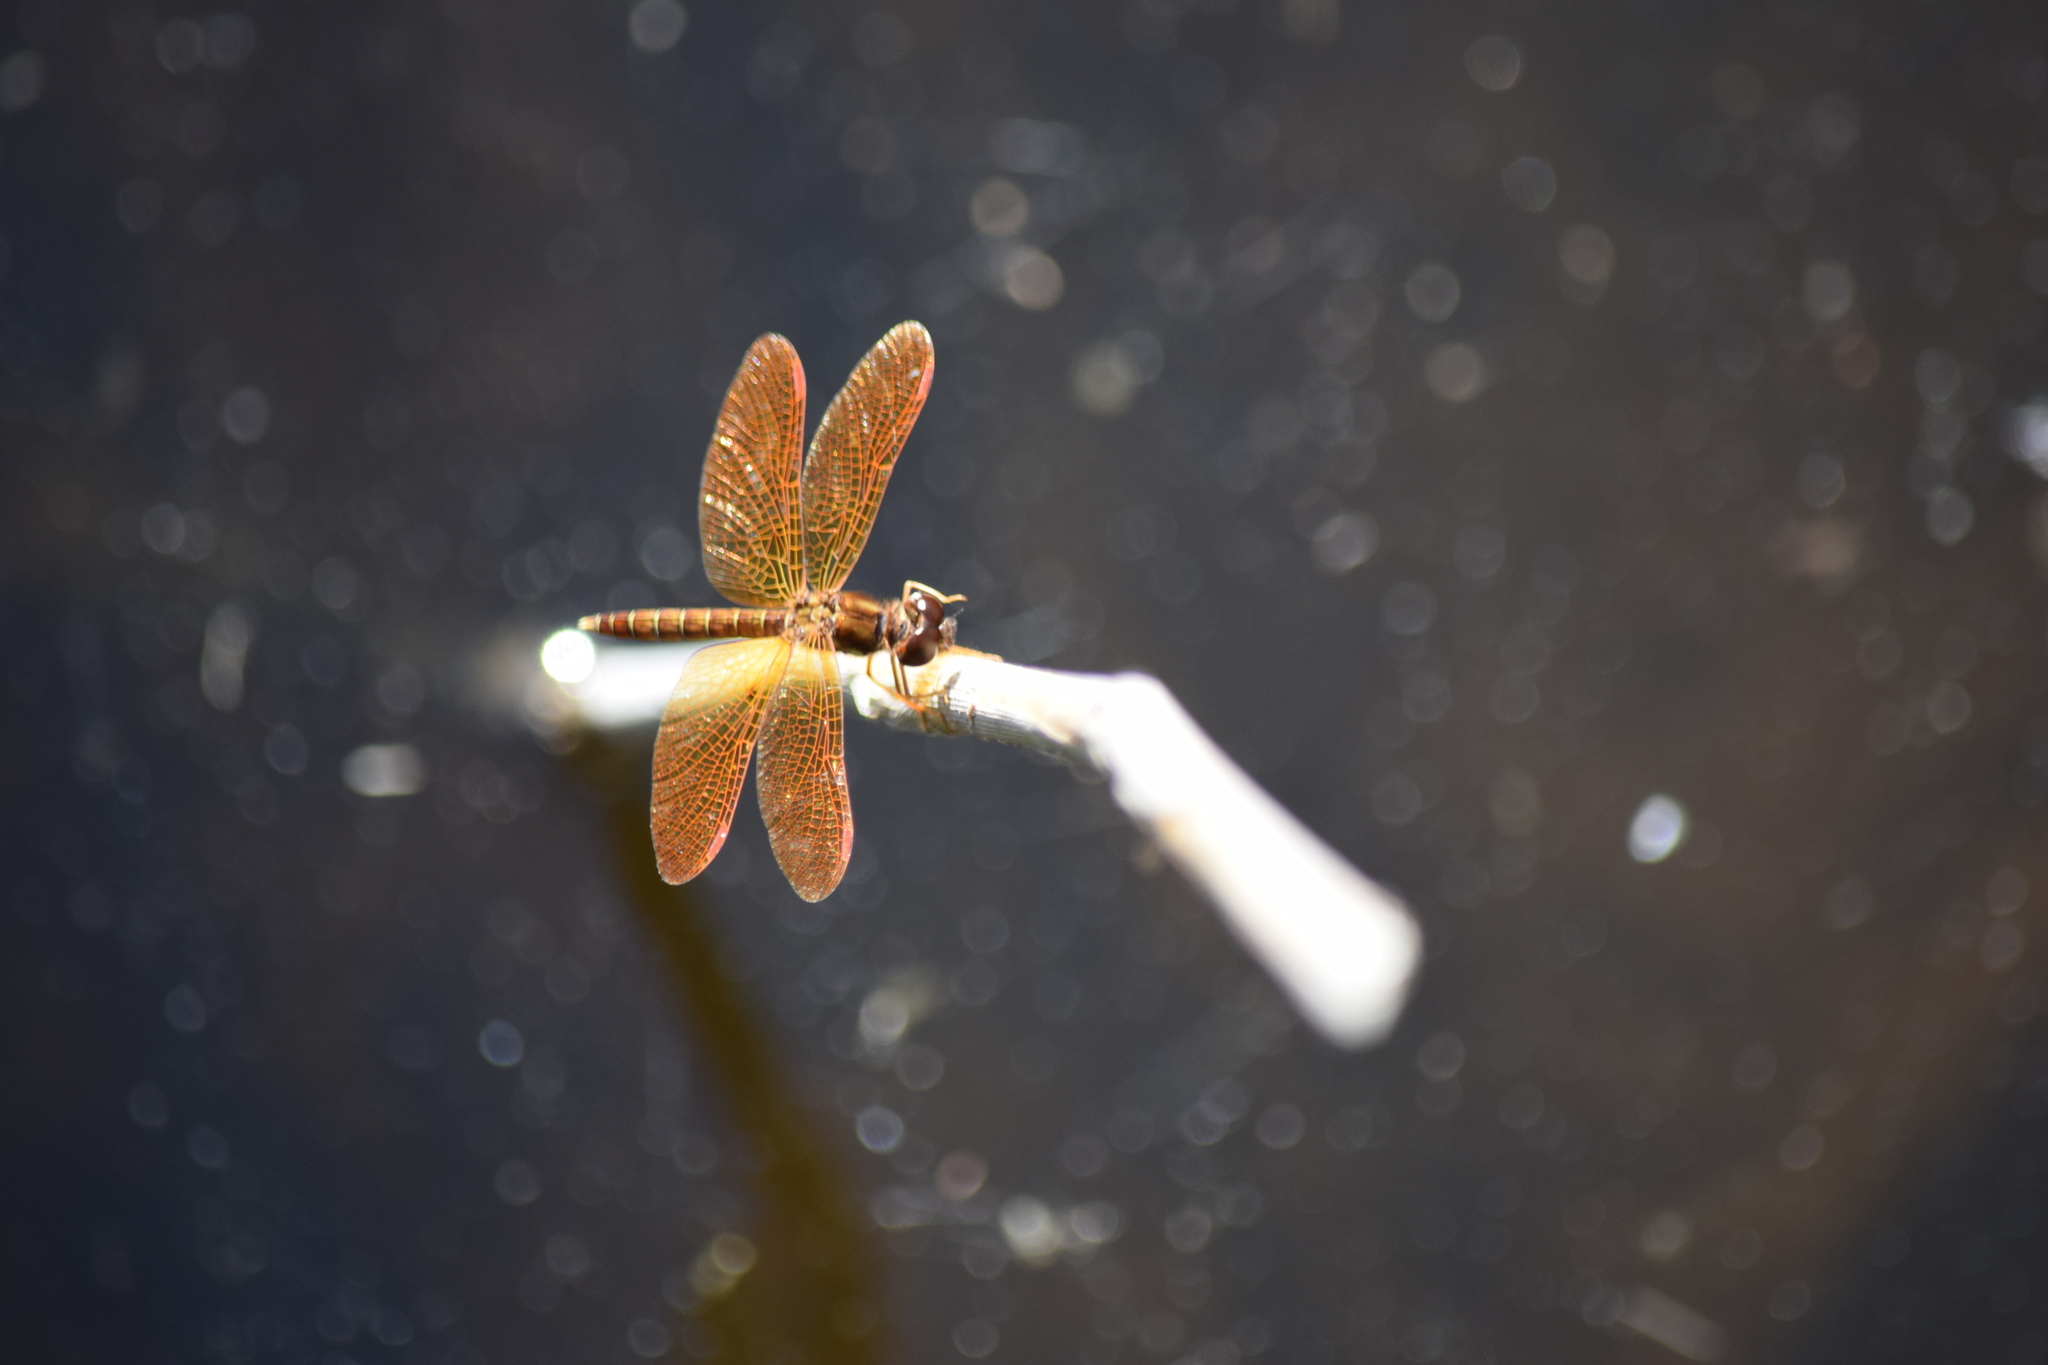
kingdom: Animalia
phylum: Arthropoda
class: Insecta
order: Odonata
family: Libellulidae
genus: Perithemis
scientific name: Perithemis tenera
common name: Eastern amberwing
